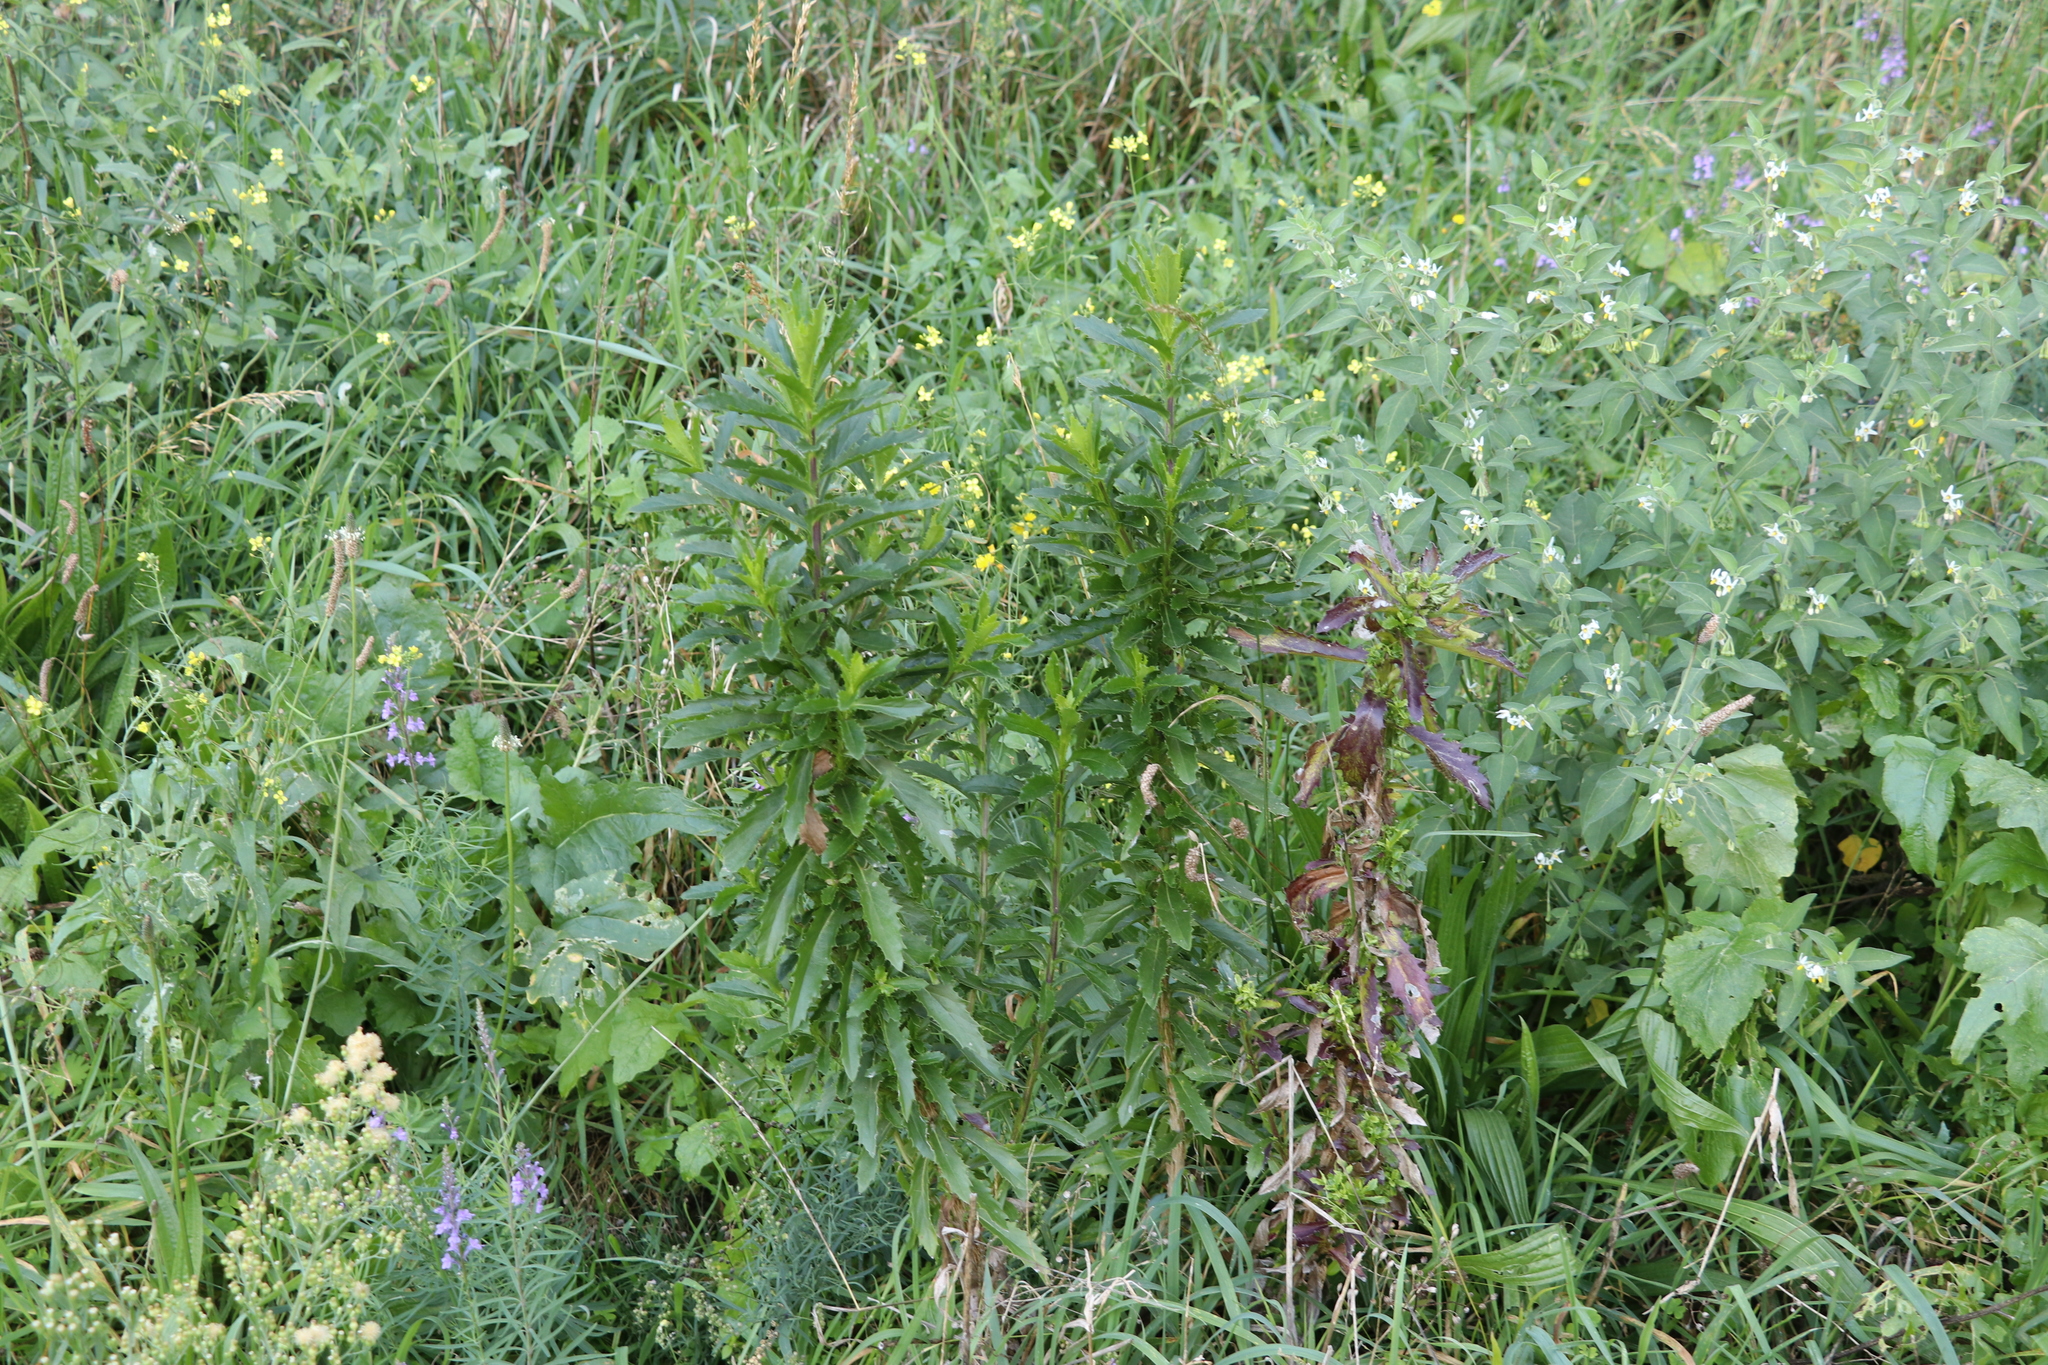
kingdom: Plantae
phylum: Tracheophyta
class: Magnoliopsida
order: Asterales
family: Asteraceae
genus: Senecio
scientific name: Senecio glastifolius
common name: Woad-leaved ragwort
